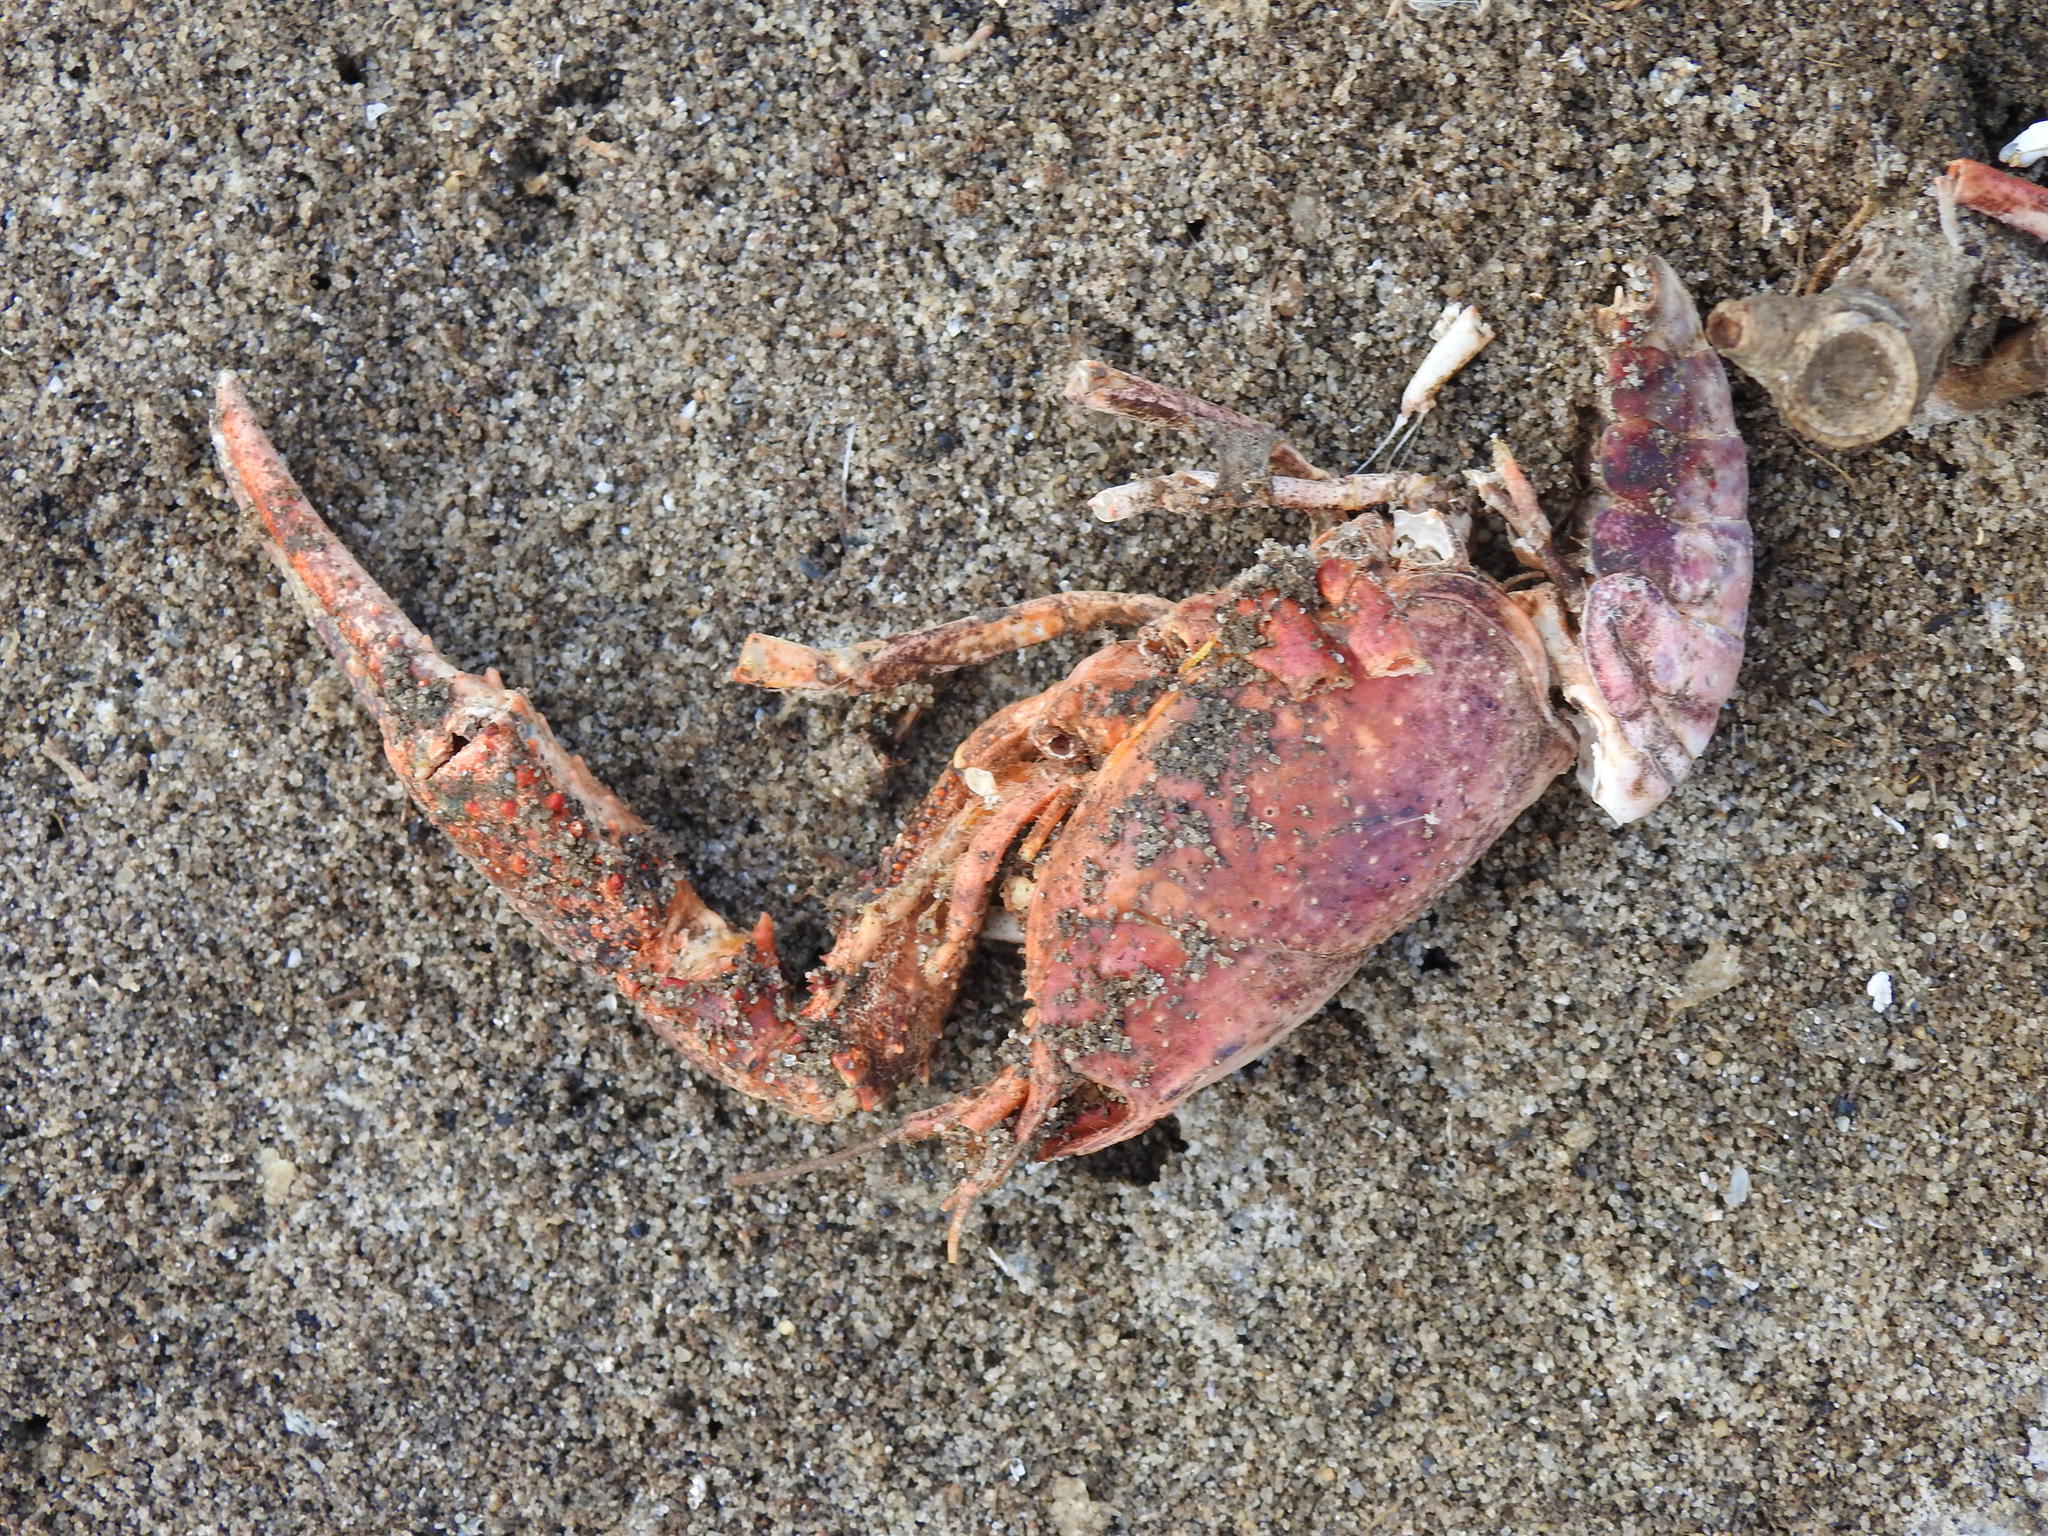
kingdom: Animalia
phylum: Arthropoda
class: Malacostraca
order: Decapoda
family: Cambaridae
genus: Procambarus
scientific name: Procambarus clarkii
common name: Red swamp crayfish
